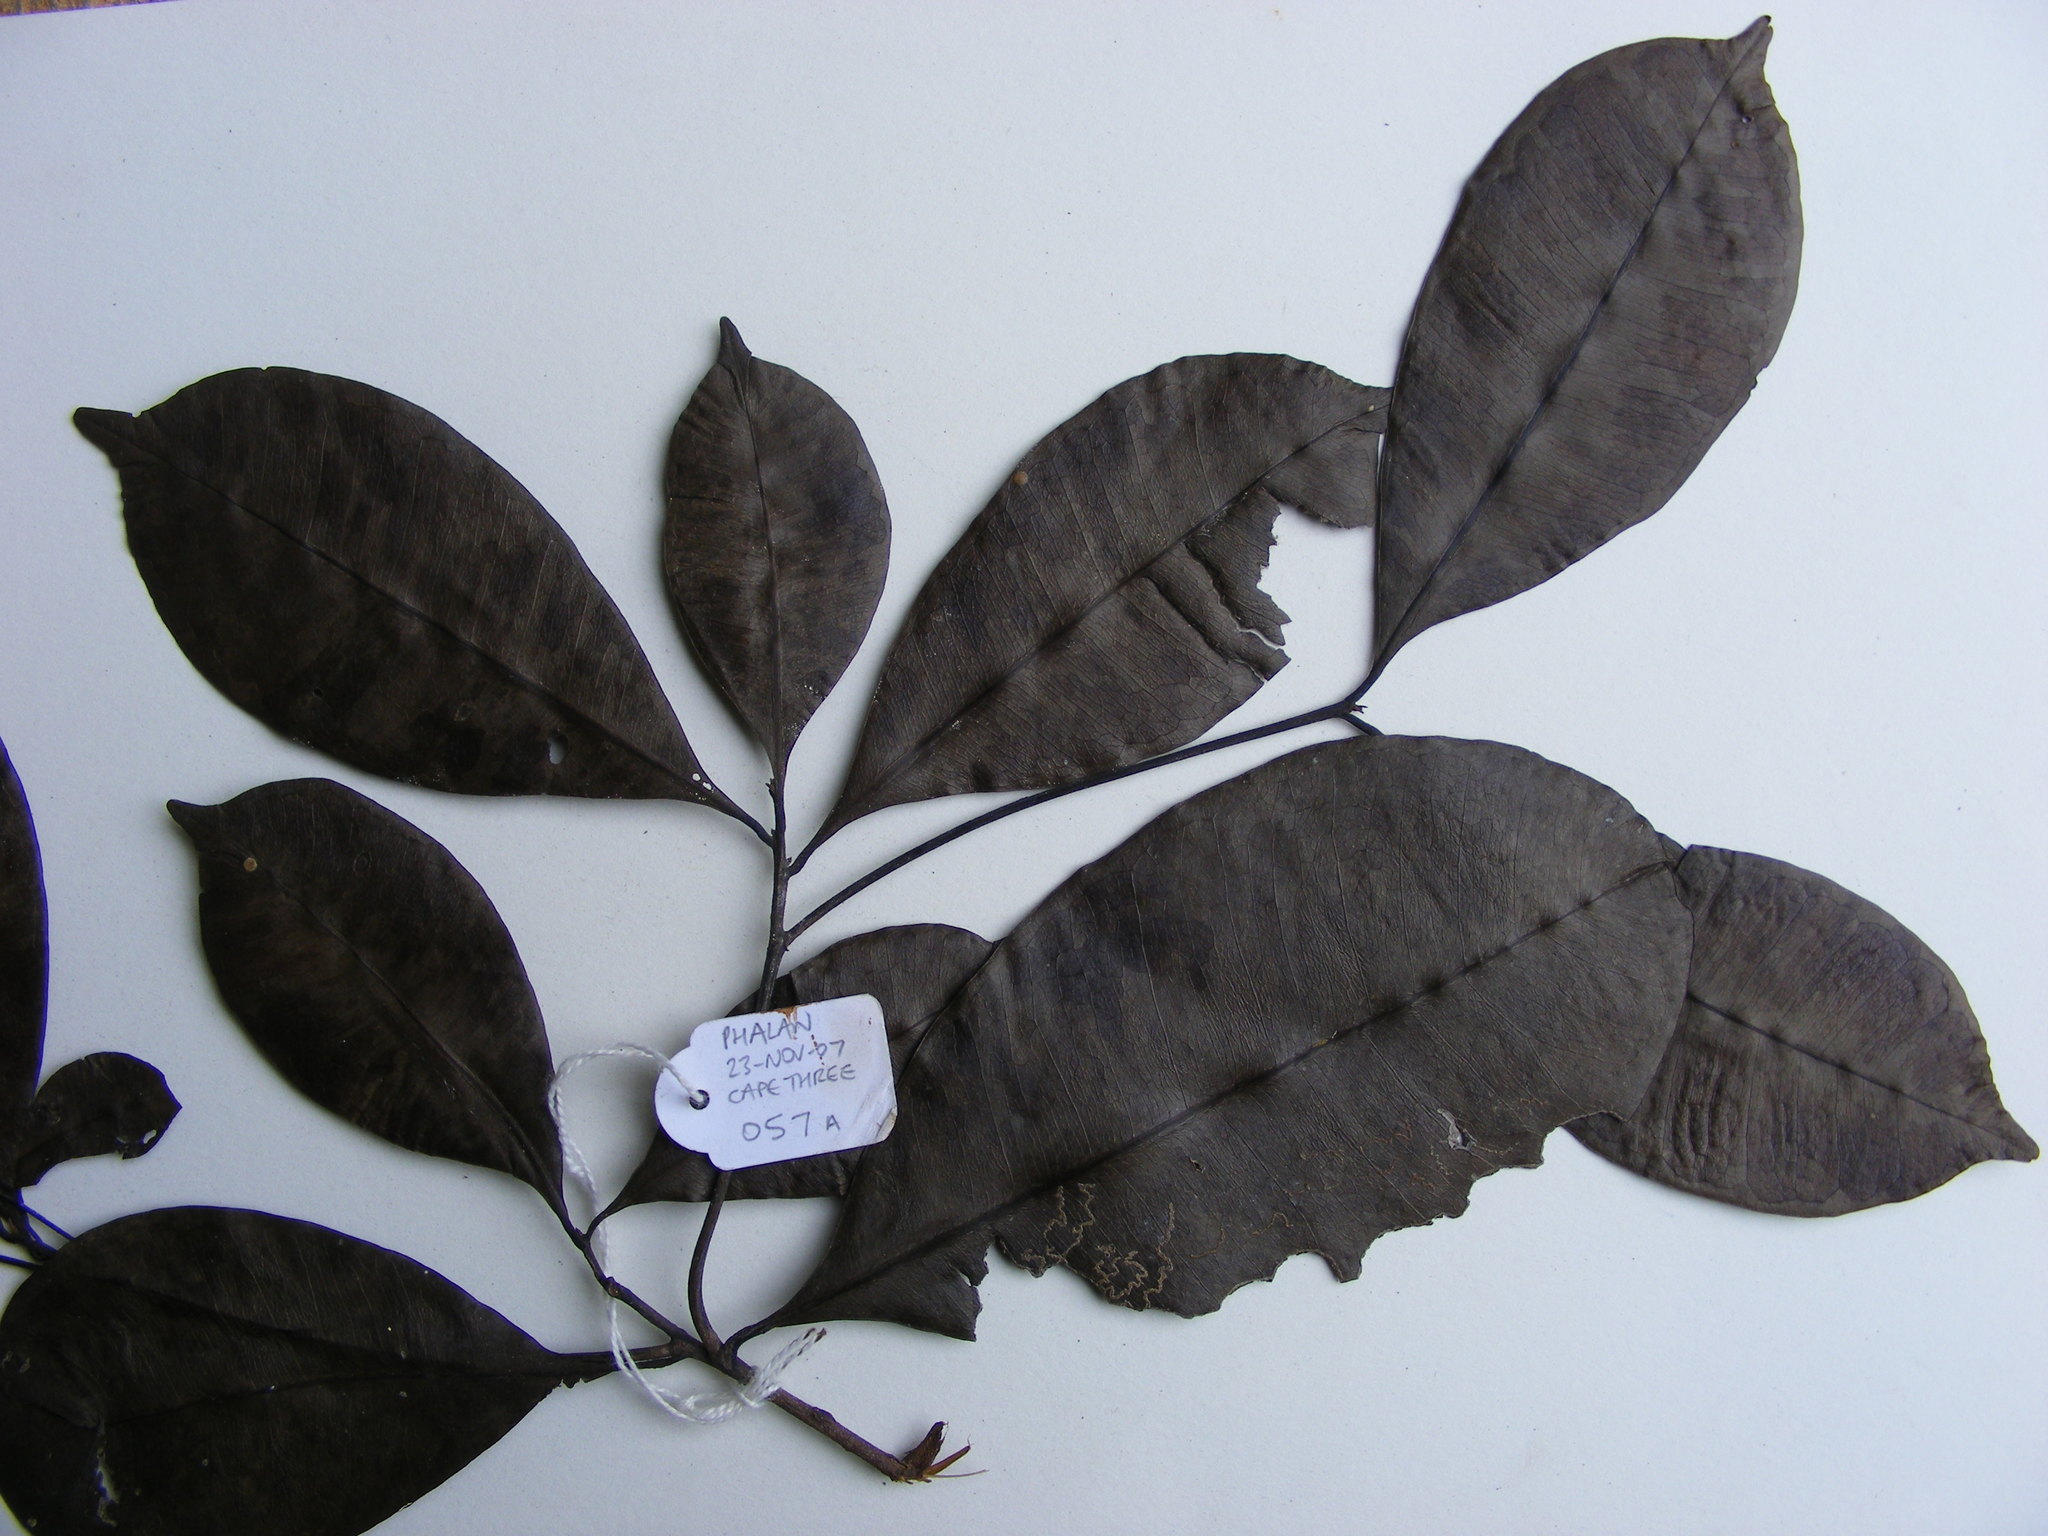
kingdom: Plantae
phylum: Tracheophyta
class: Magnoliopsida
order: Ericales
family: Sapotaceae
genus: Synsepalum
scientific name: Synsepalum ntimii
